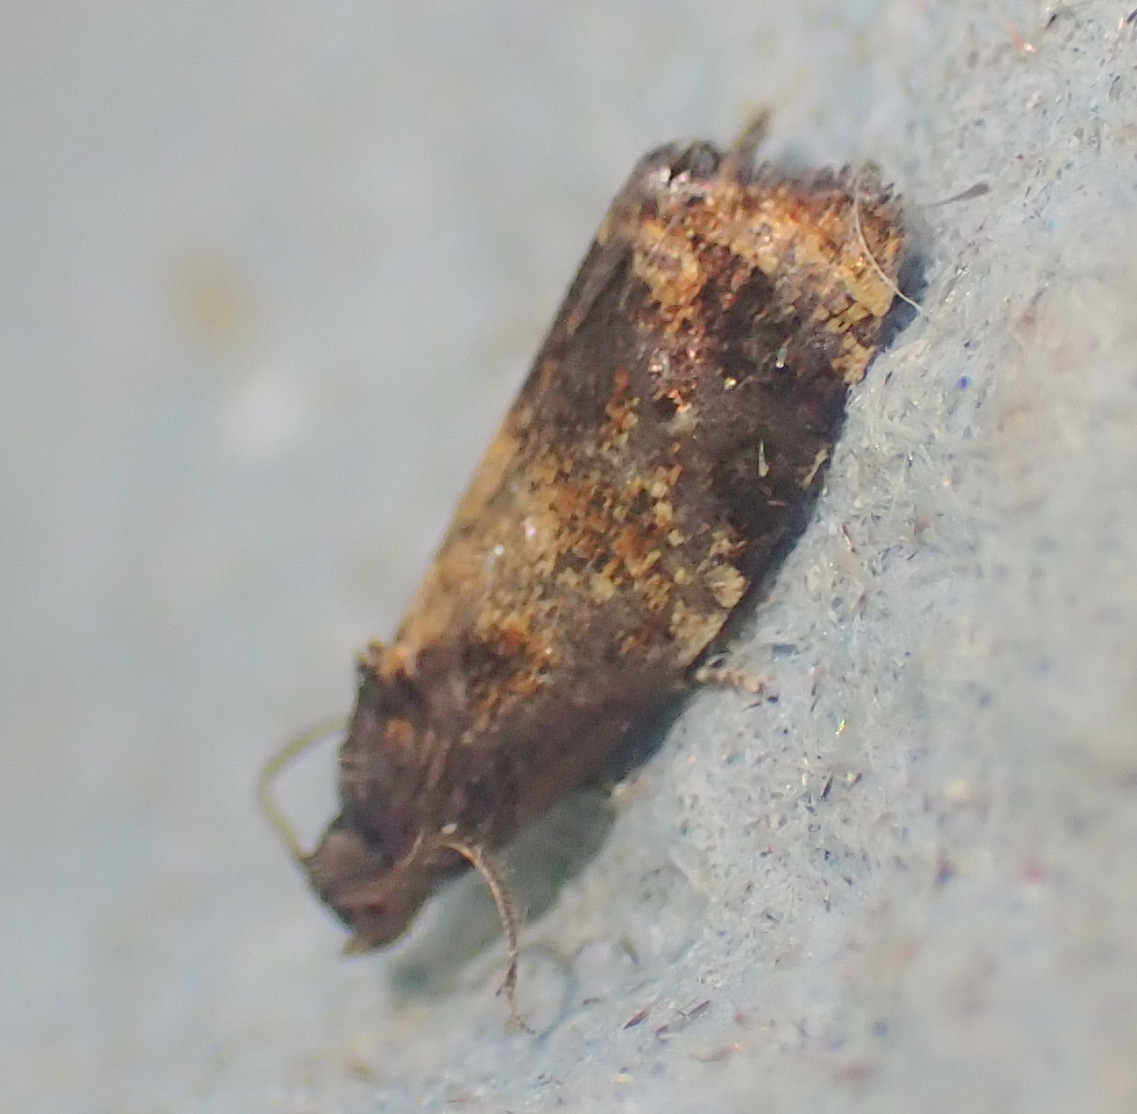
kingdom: Animalia
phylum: Arthropoda
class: Insecta
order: Lepidoptera
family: Tortricidae
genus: Ditula
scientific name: Ditula angustiorana
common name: Red-barred tortrix
